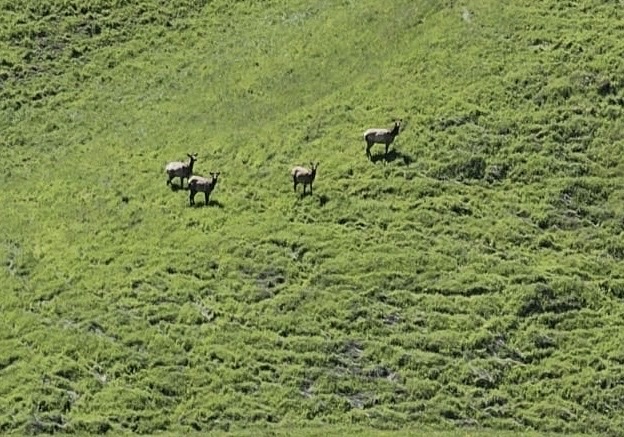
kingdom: Animalia
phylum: Chordata
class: Mammalia
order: Artiodactyla
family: Cervidae
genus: Cervus
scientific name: Cervus elaphus
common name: Red deer
